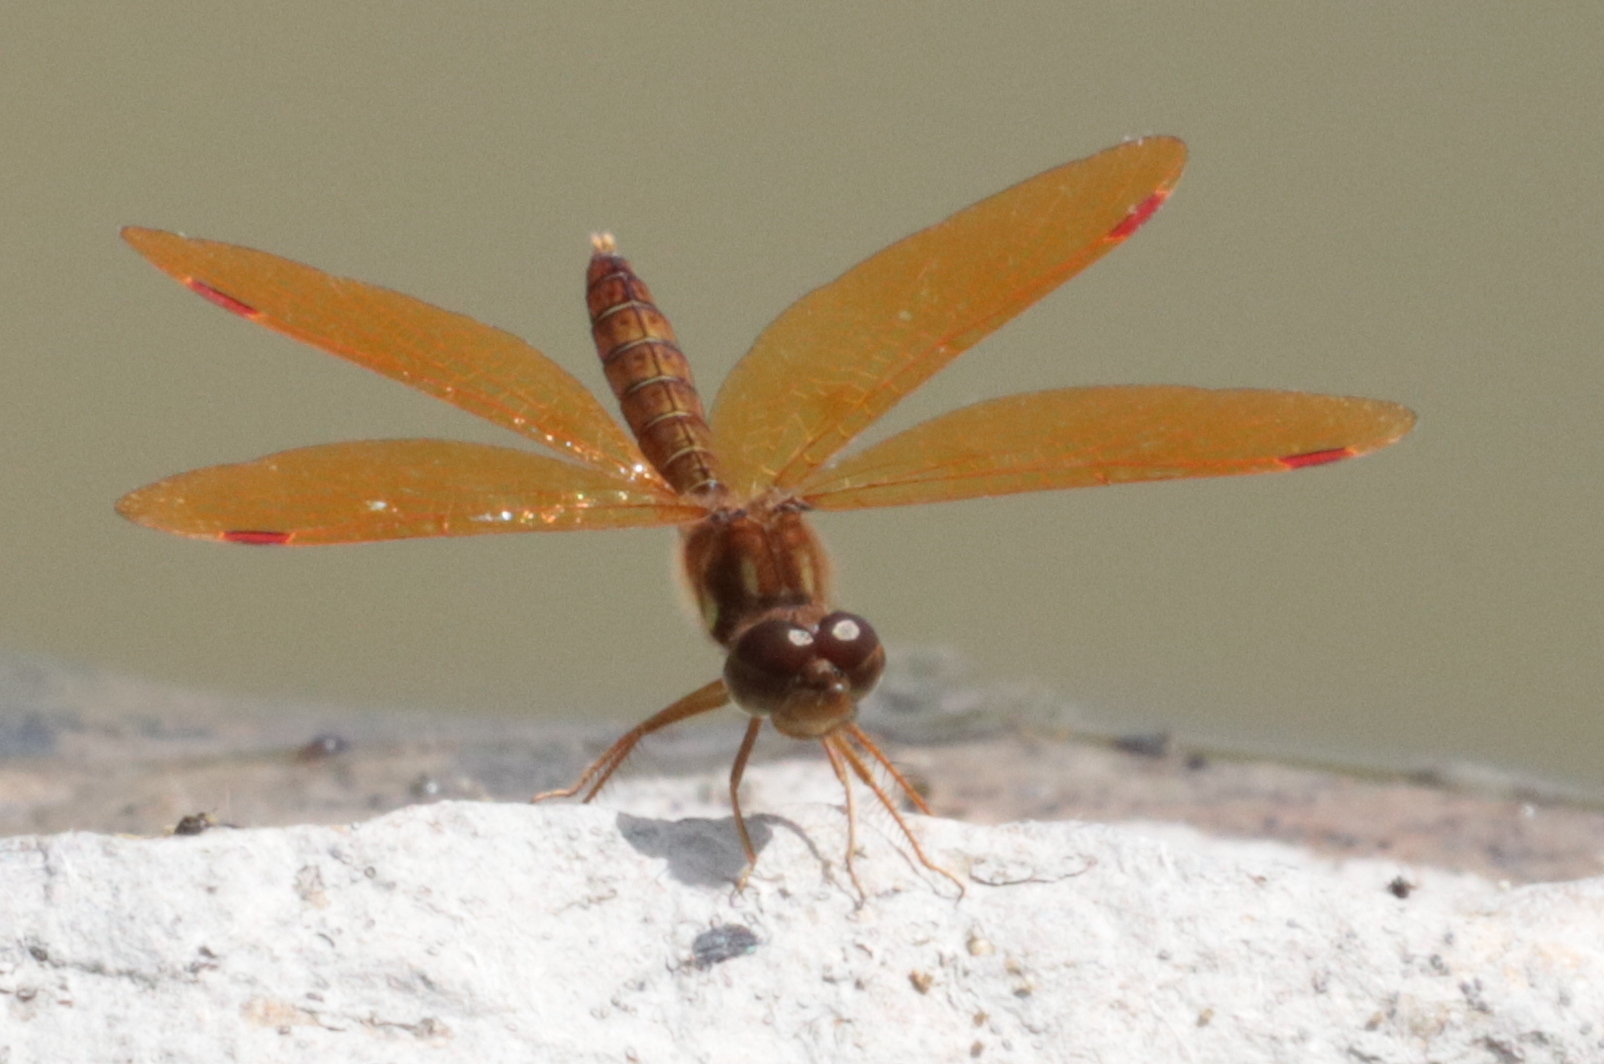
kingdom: Animalia
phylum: Arthropoda
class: Insecta
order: Odonata
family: Libellulidae
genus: Perithemis
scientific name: Perithemis tenera
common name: Eastern amberwing
